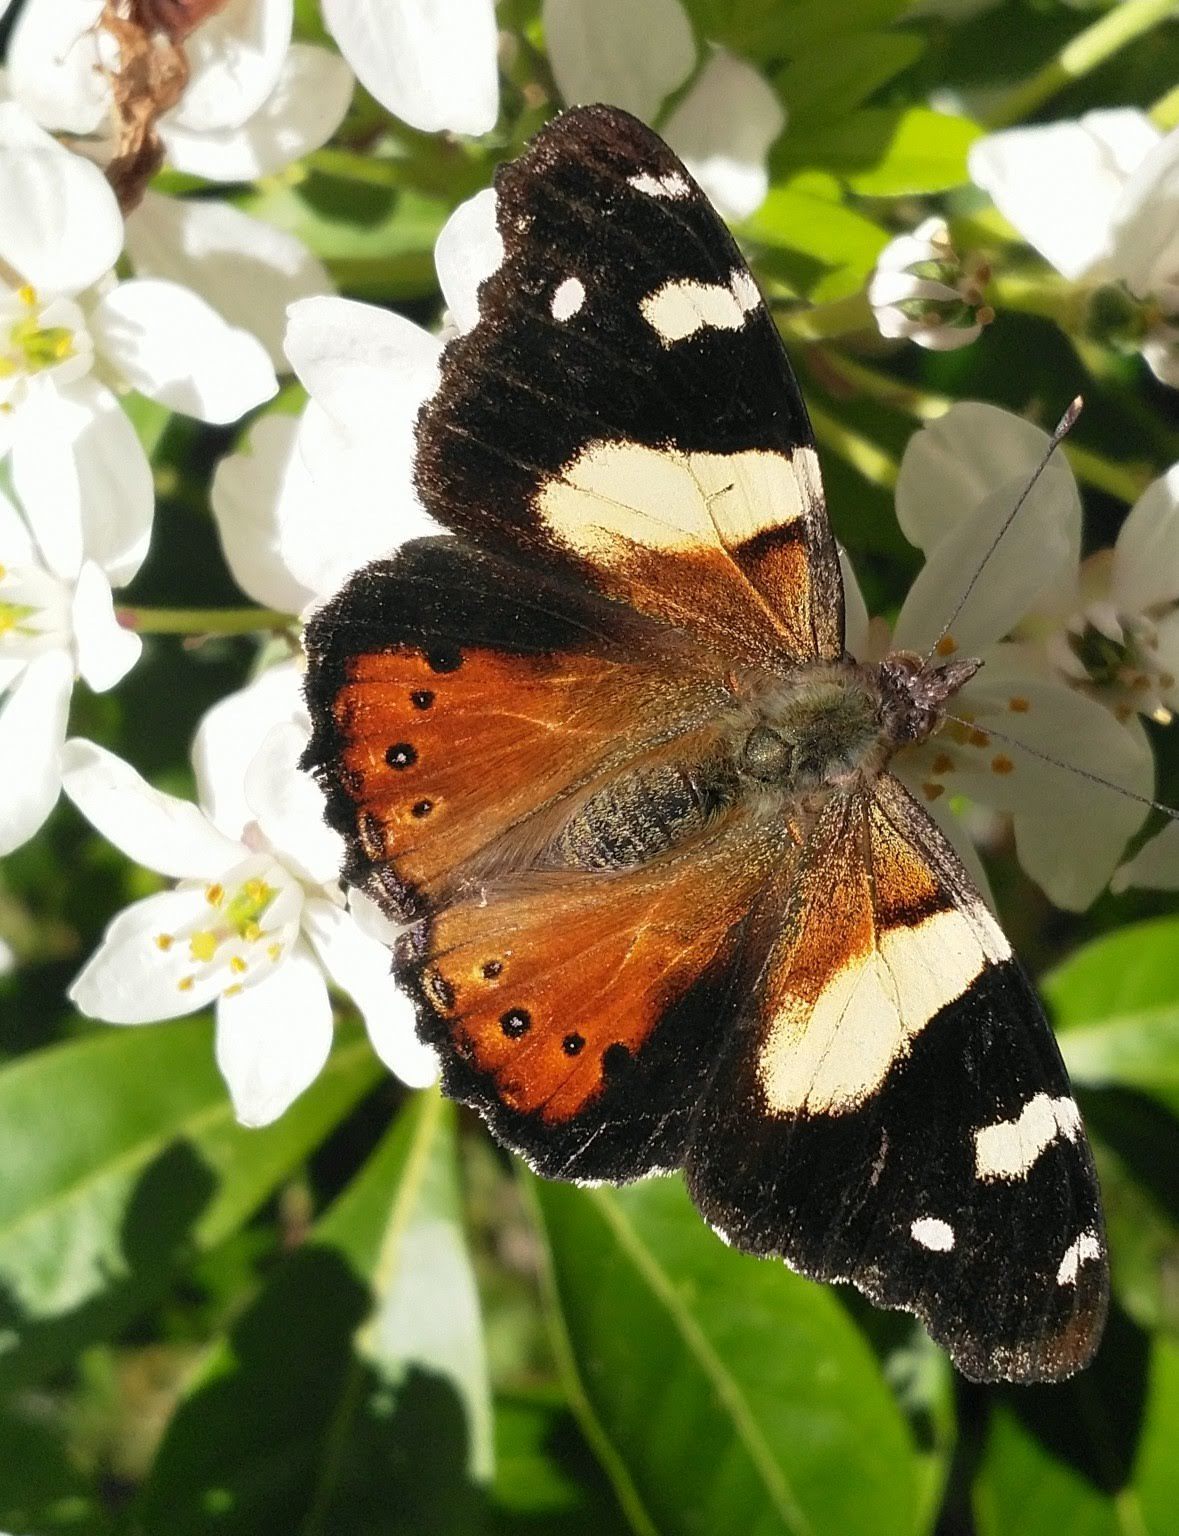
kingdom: Animalia
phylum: Arthropoda
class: Insecta
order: Lepidoptera
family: Nymphalidae
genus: Vanessa
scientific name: Vanessa itea
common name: Yellow admiral
